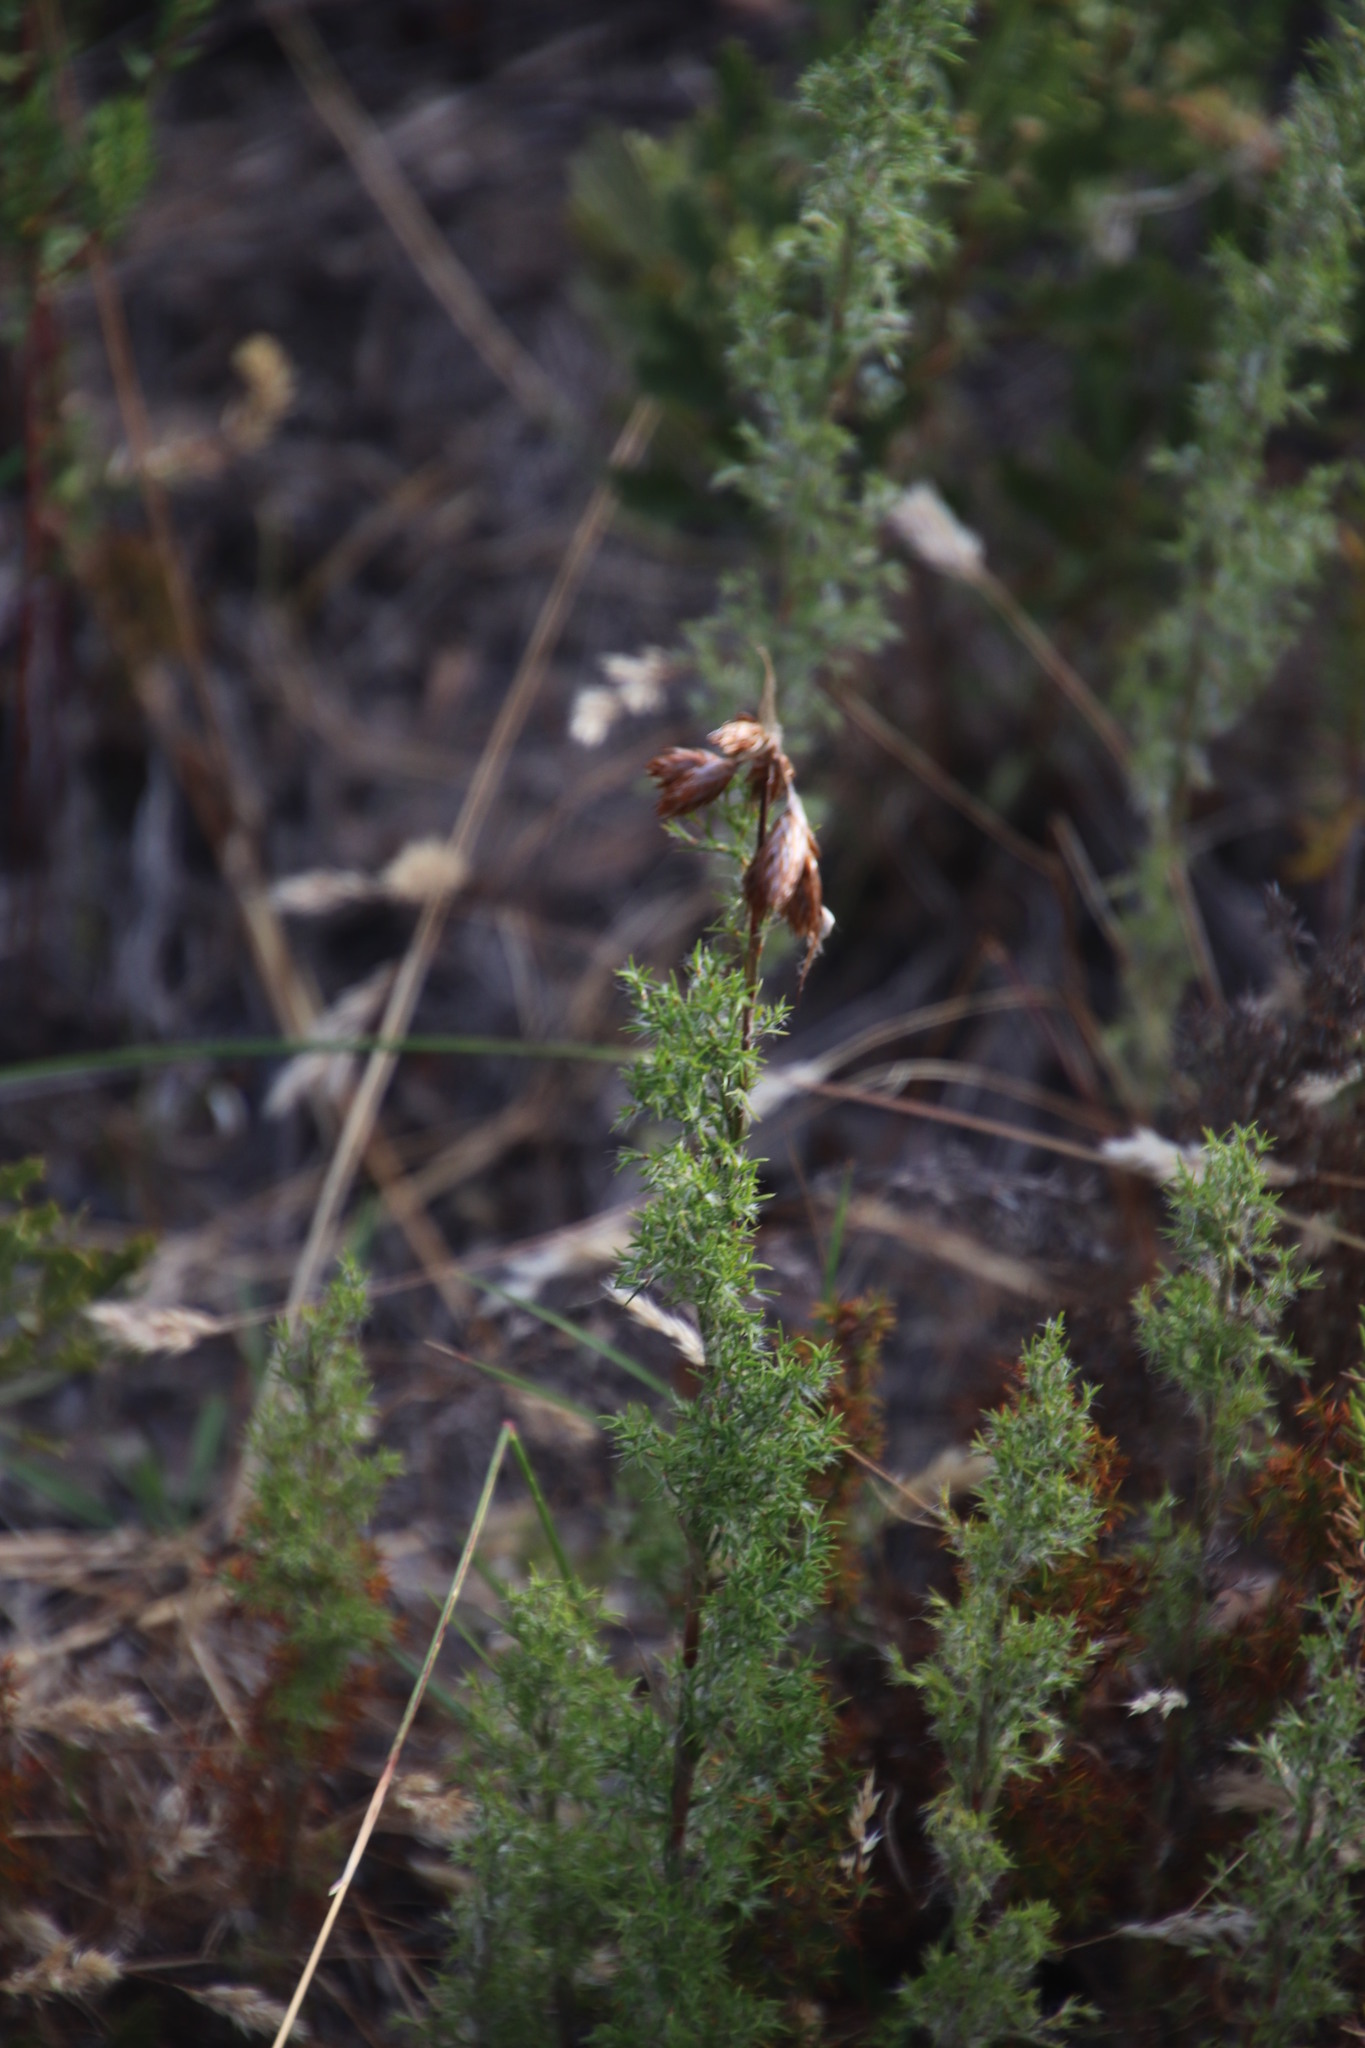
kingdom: Plantae
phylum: Tracheophyta
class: Liliopsida
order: Poales
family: Restionaceae
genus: Thamnochortus
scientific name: Thamnochortus fruticosus
